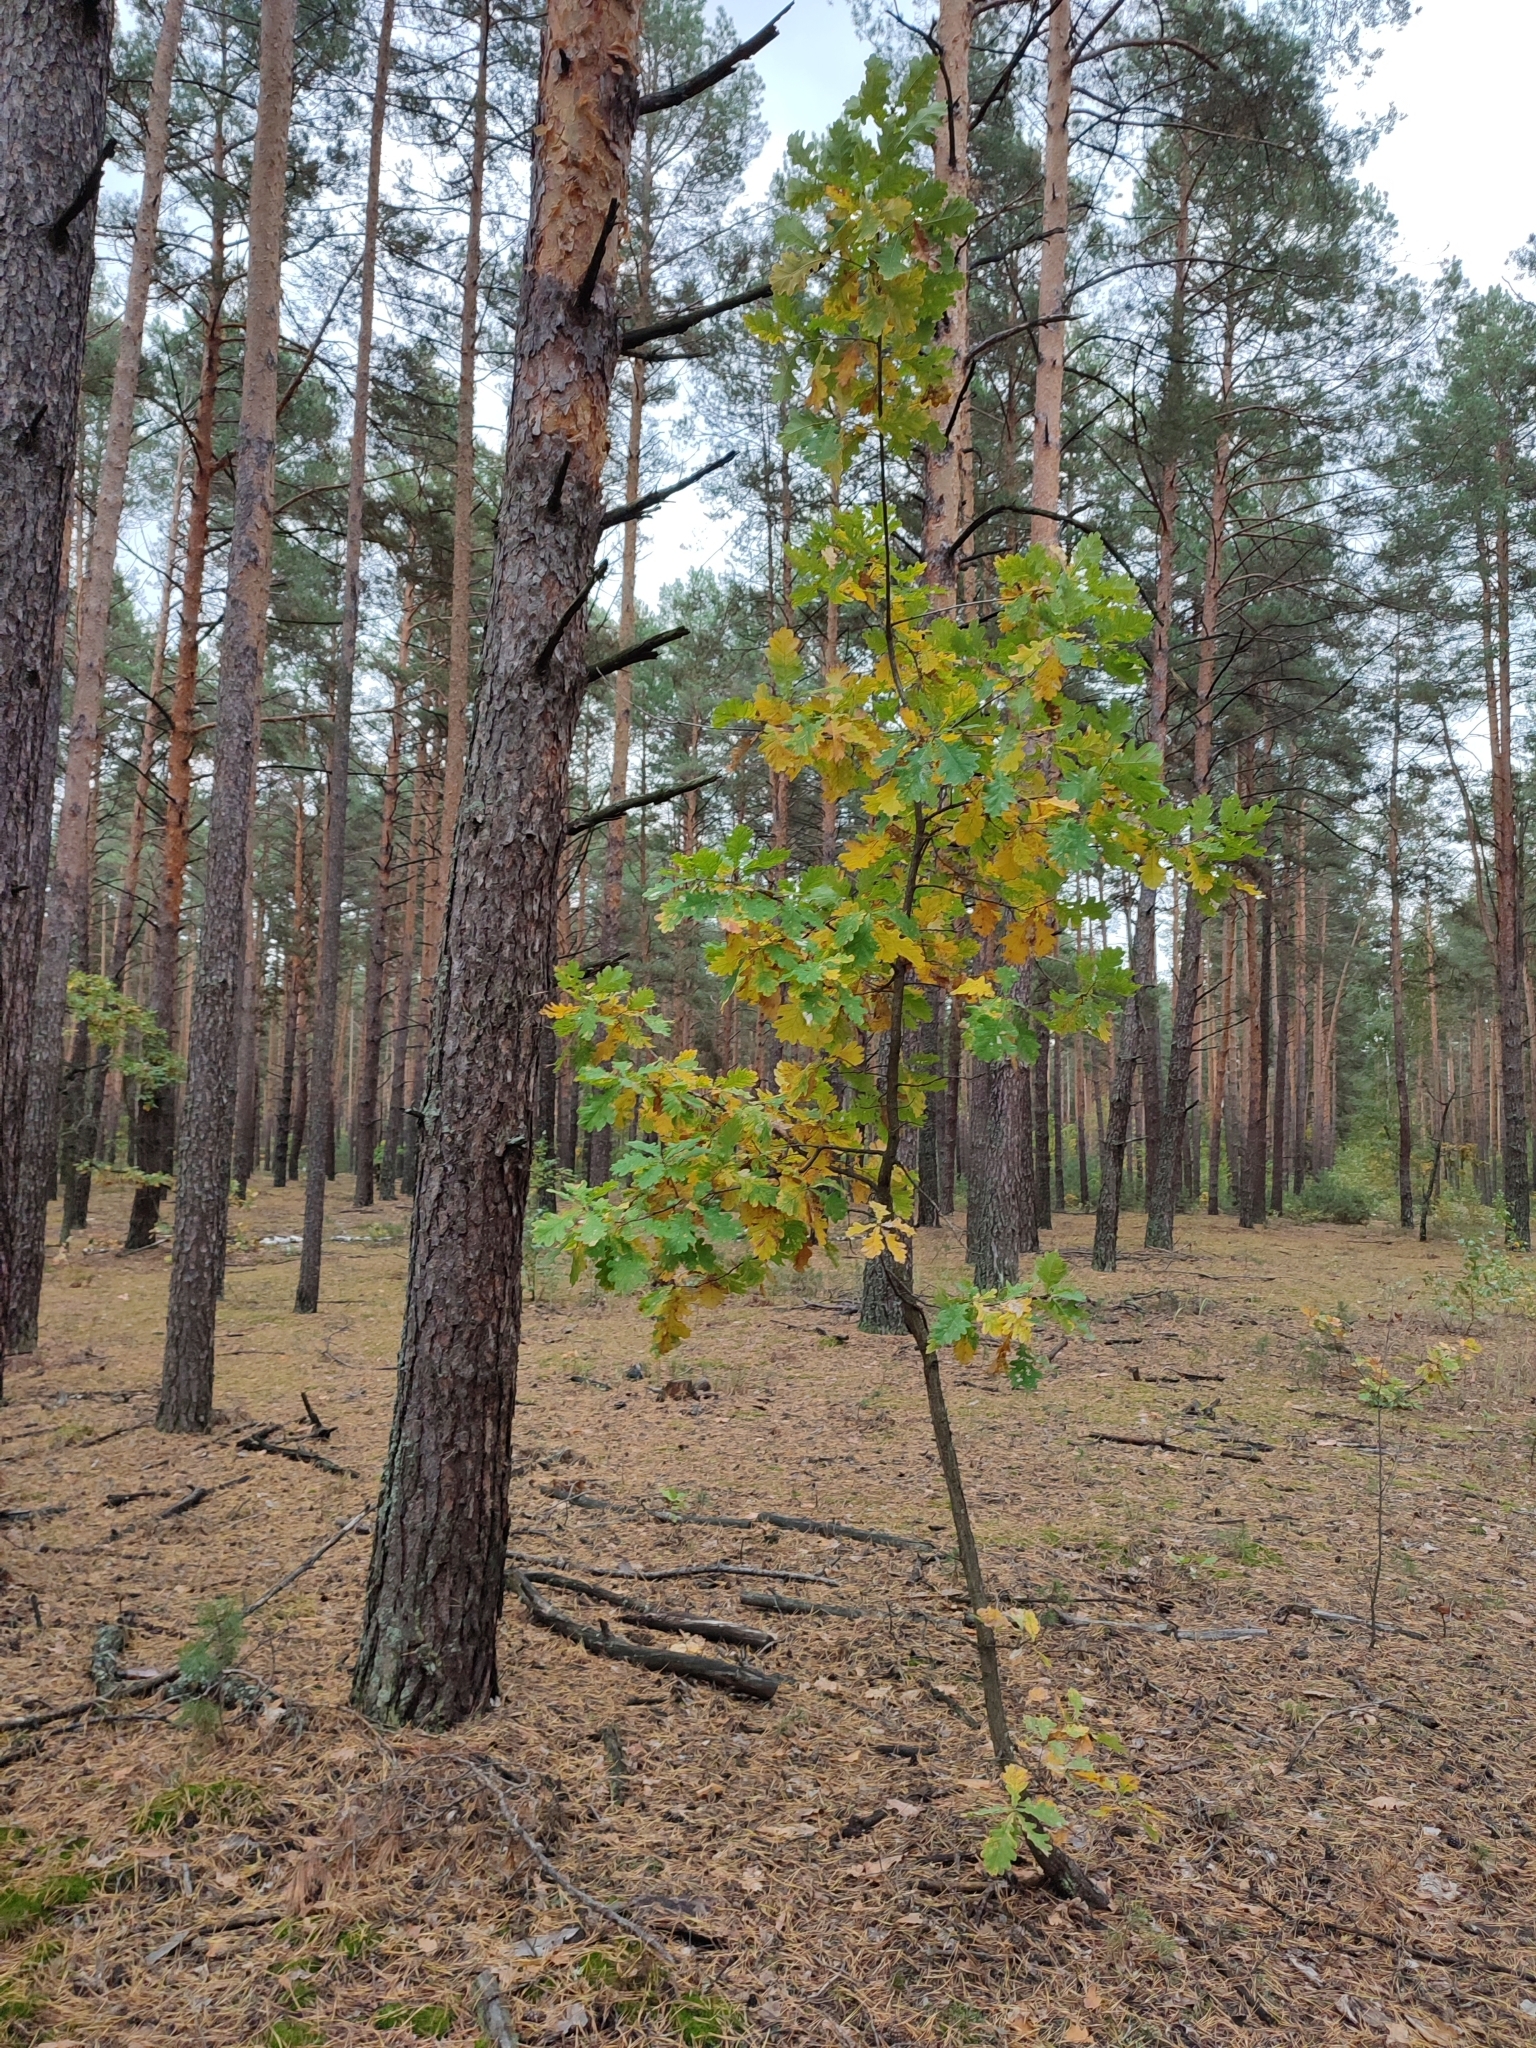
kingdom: Plantae
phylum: Tracheophyta
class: Magnoliopsida
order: Fagales
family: Fagaceae
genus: Quercus
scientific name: Quercus robur
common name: Pedunculate oak
